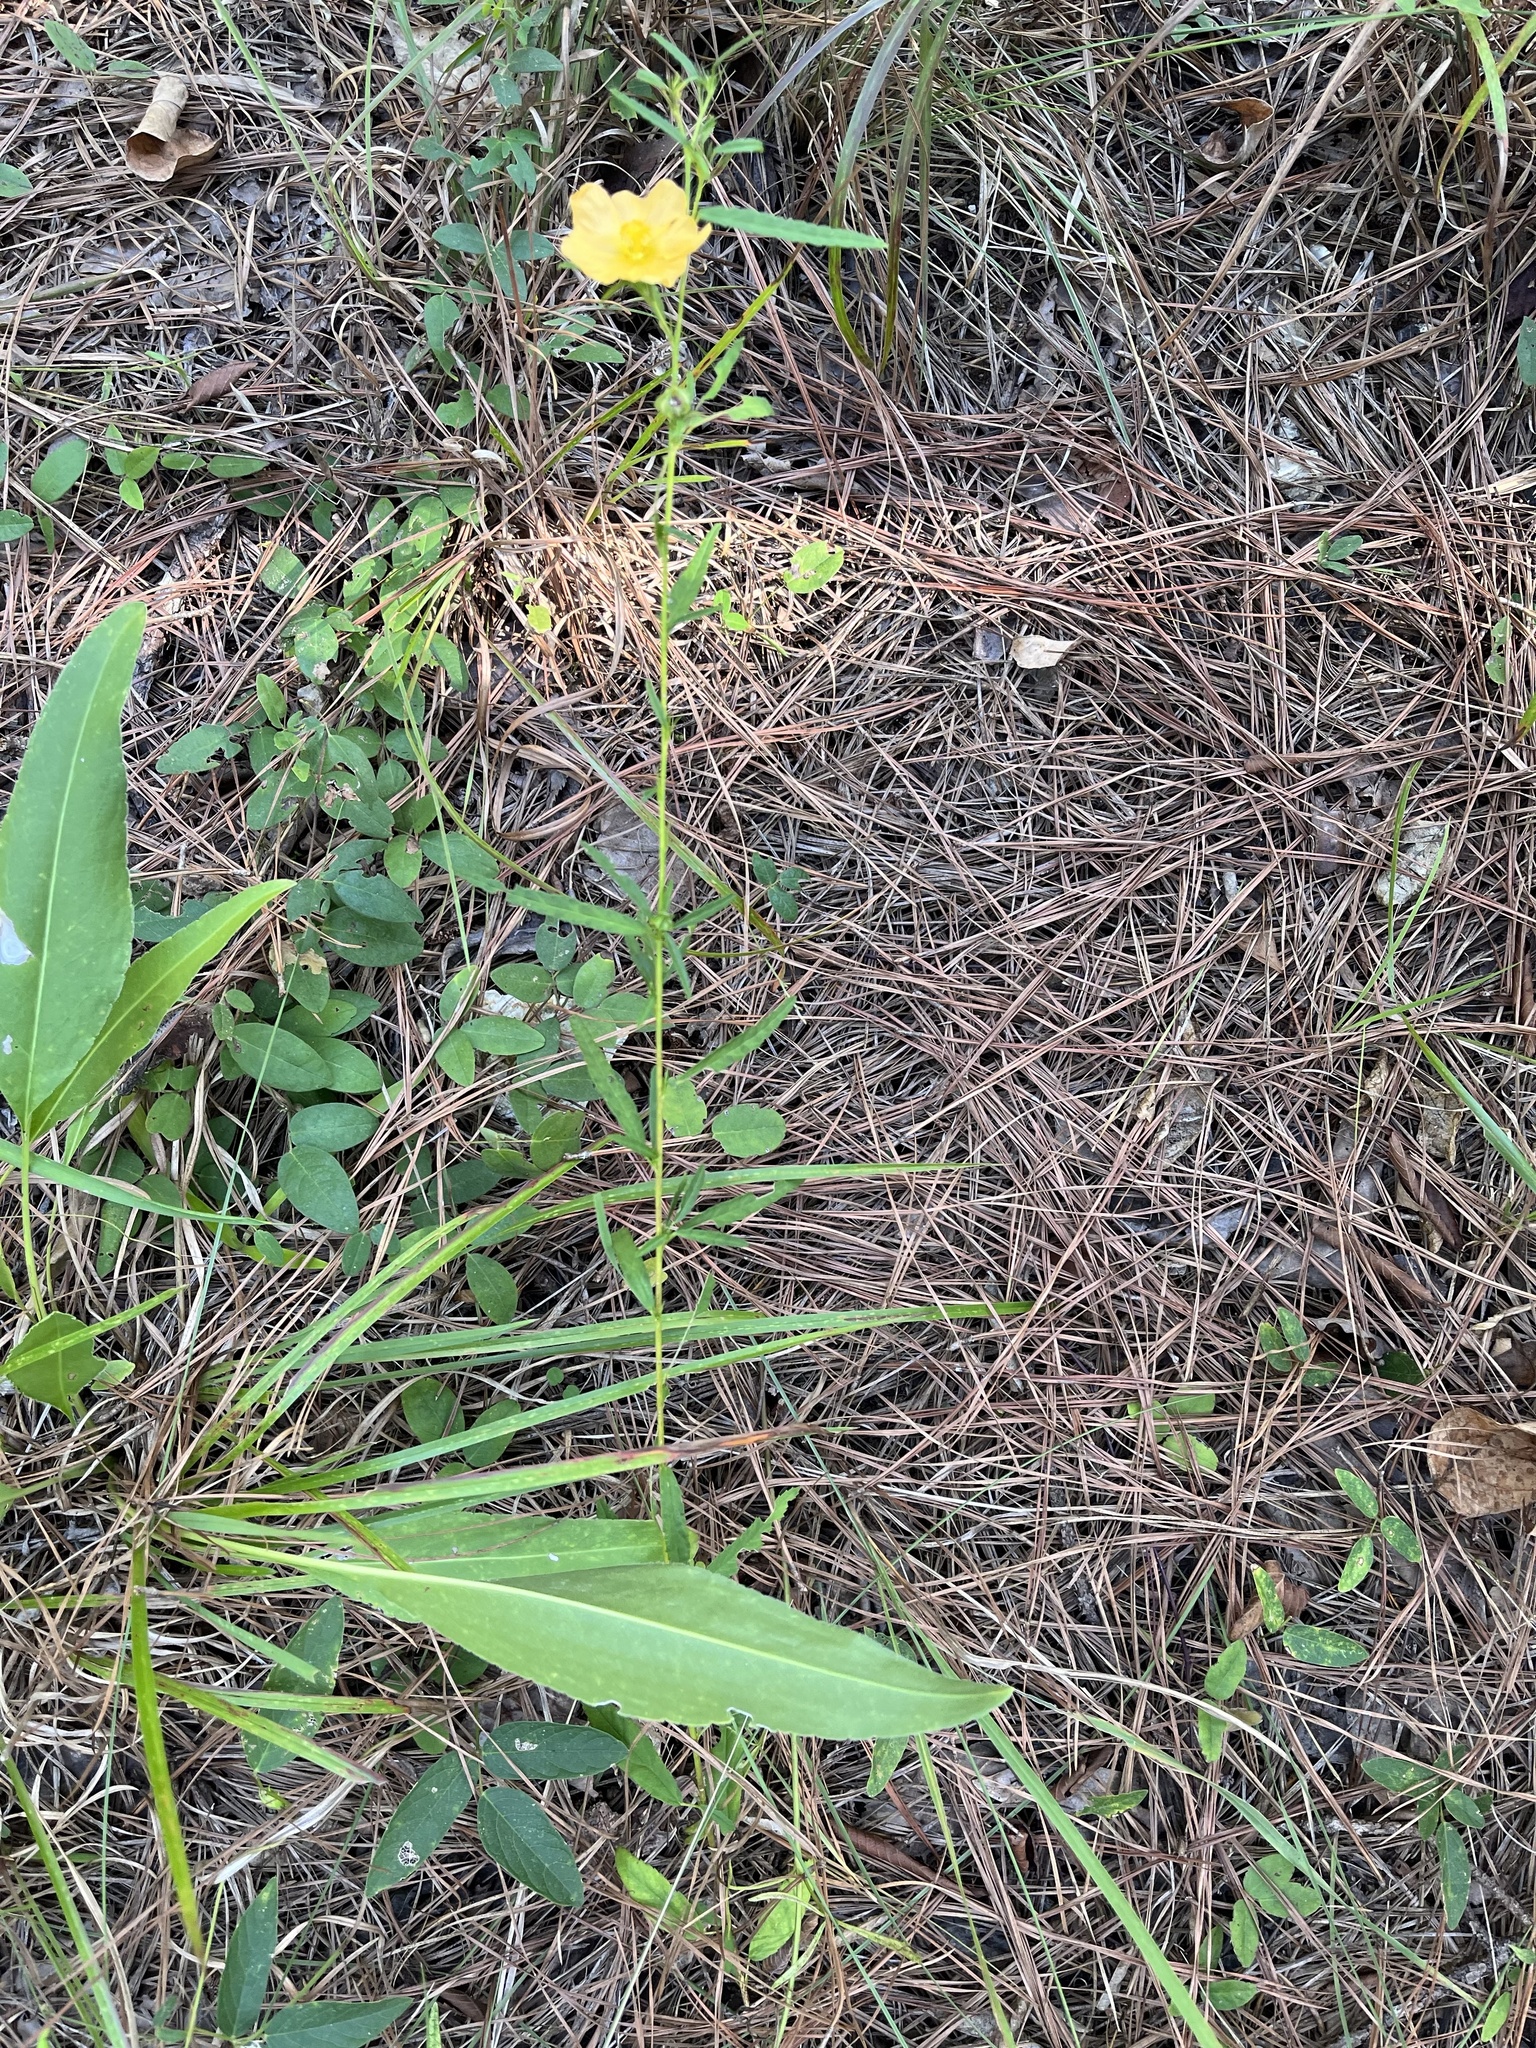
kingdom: Plantae
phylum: Tracheophyta
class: Magnoliopsida
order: Malvales
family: Malvaceae
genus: Sida
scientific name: Sida elliottii
